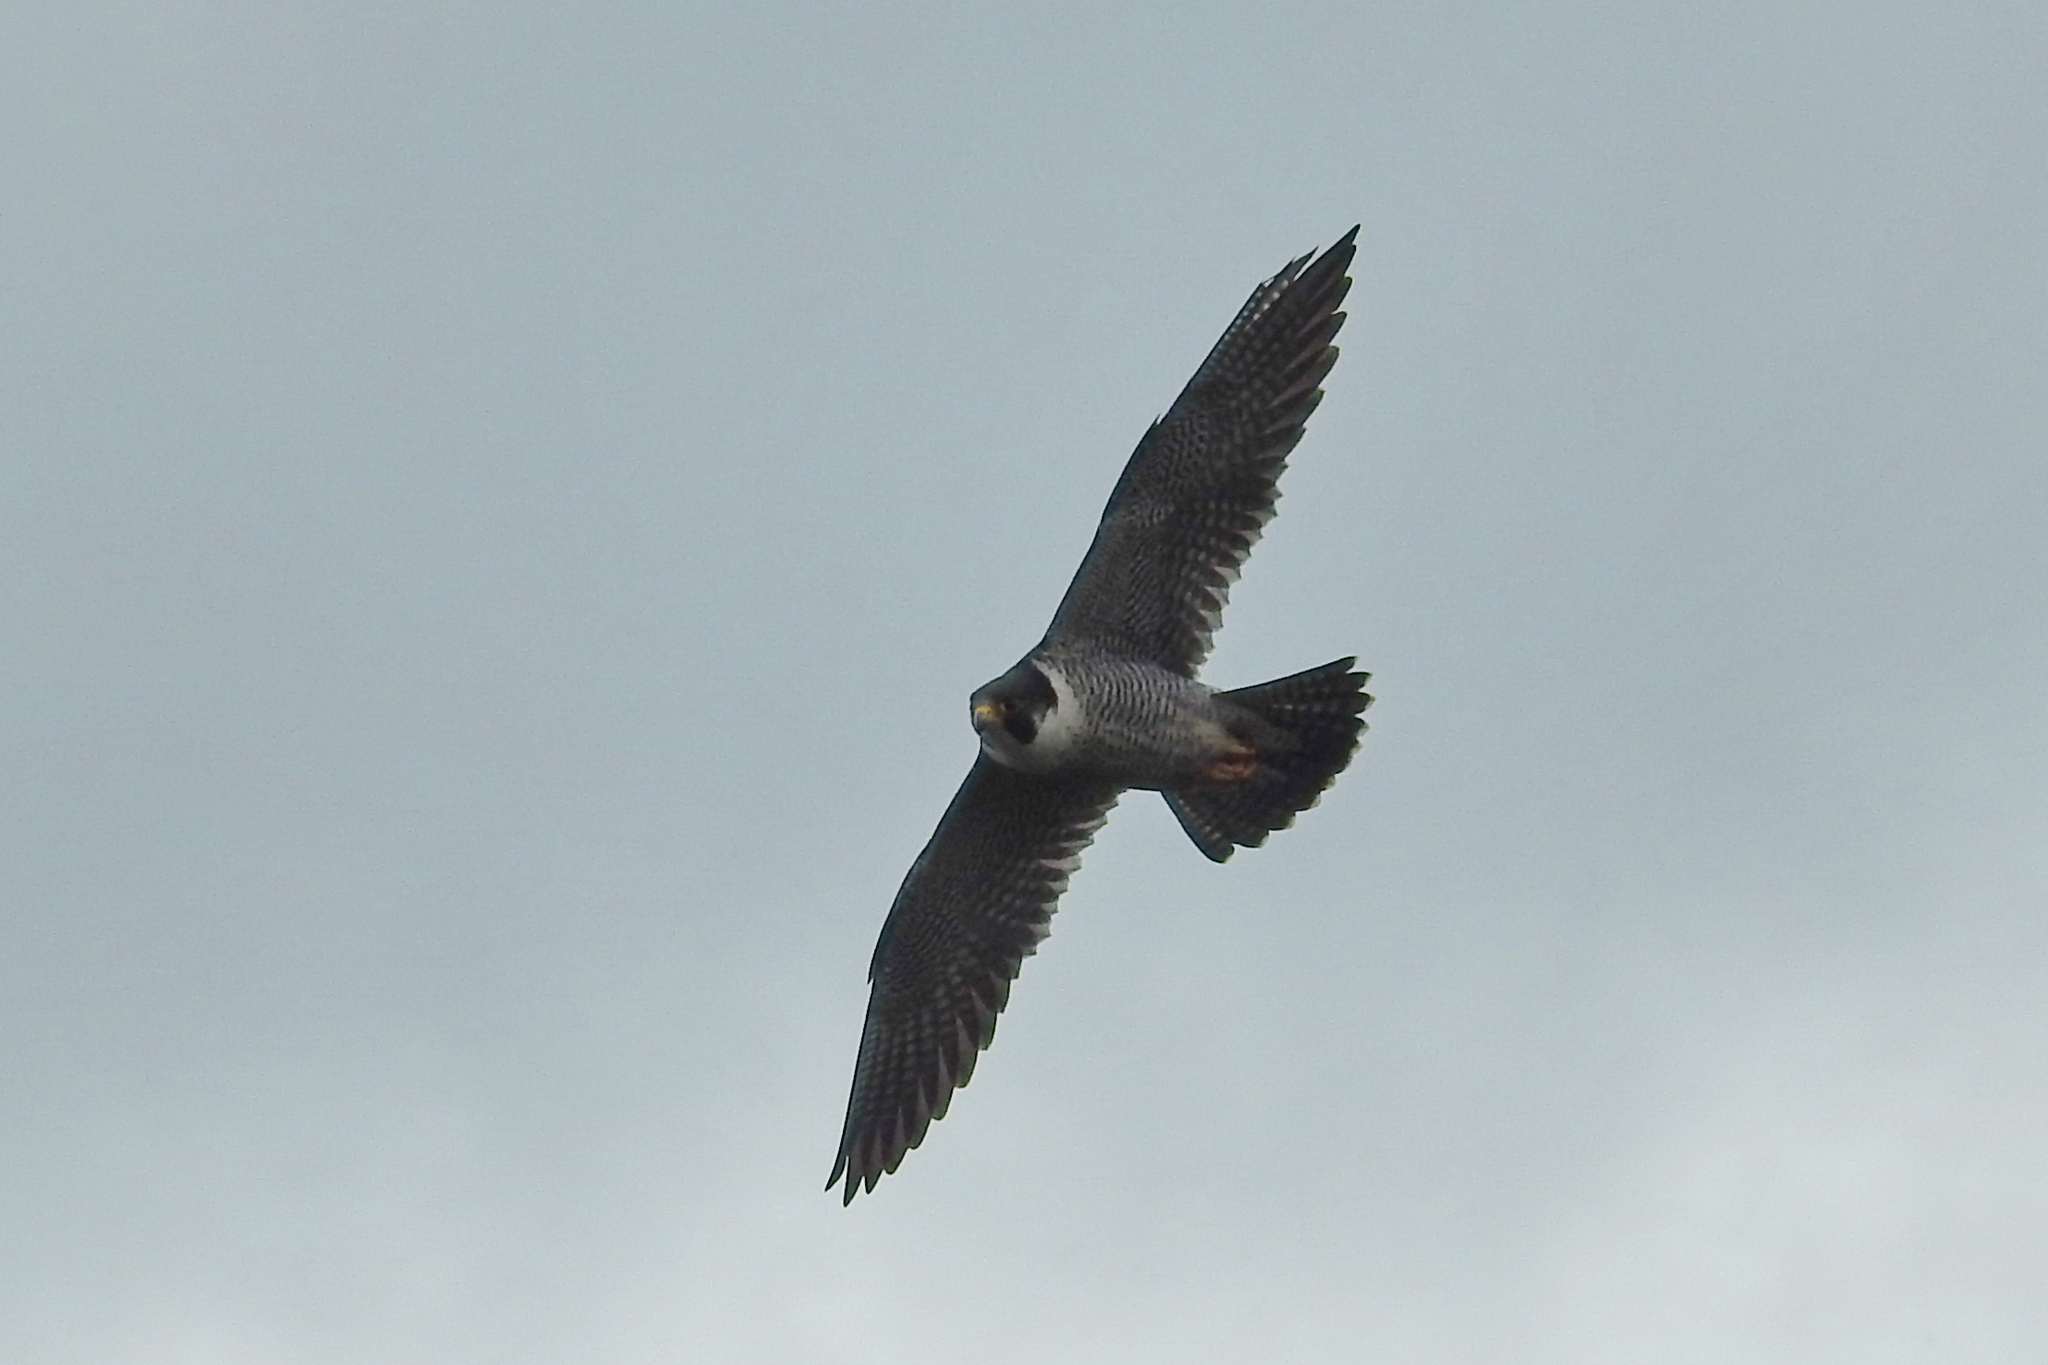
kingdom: Animalia
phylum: Chordata
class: Aves
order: Falconiformes
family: Falconidae
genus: Falco
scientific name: Falco peregrinus
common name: Peregrine falcon
